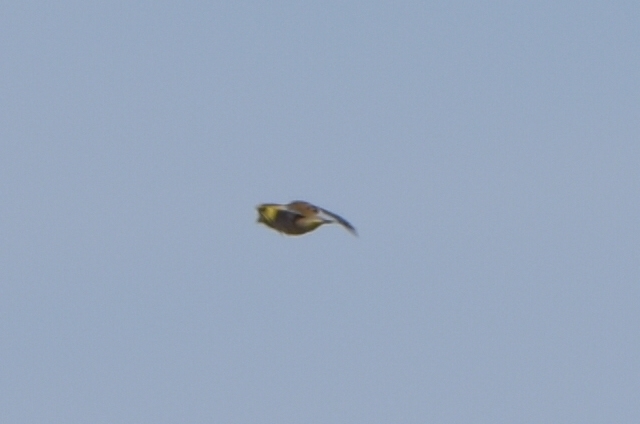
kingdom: Plantae
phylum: Tracheophyta
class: Liliopsida
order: Poales
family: Poaceae
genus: Chloris
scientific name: Chloris sinica
